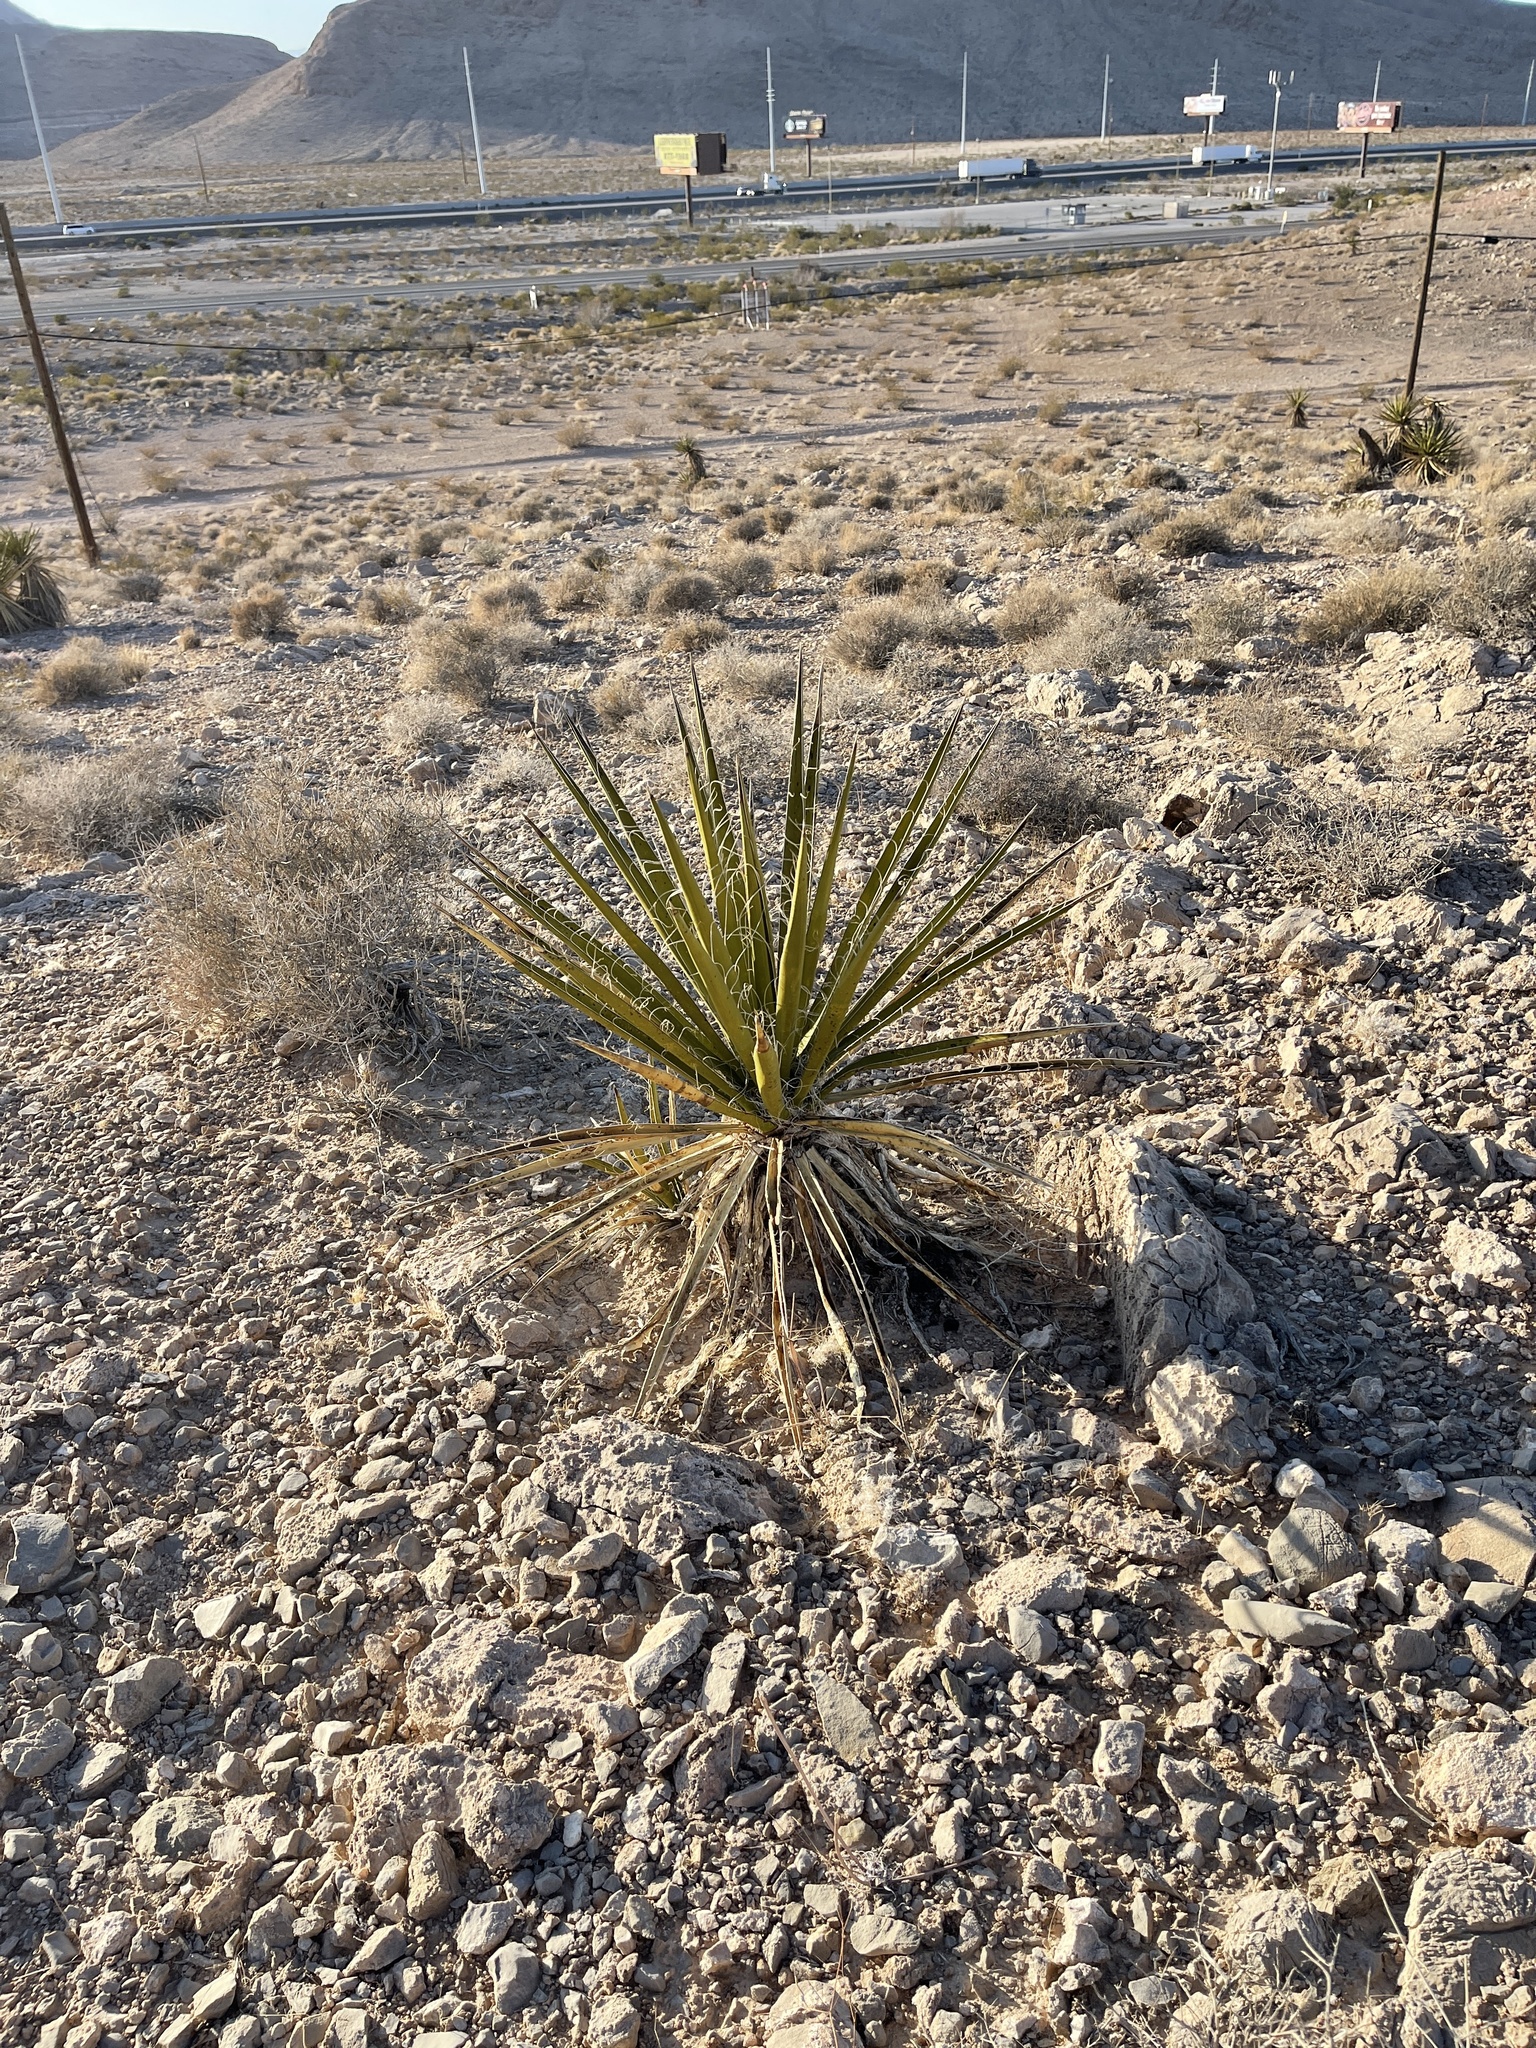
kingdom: Plantae
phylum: Tracheophyta
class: Liliopsida
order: Asparagales
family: Asparagaceae
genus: Yucca
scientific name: Yucca schidigera
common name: Mojave yucca
